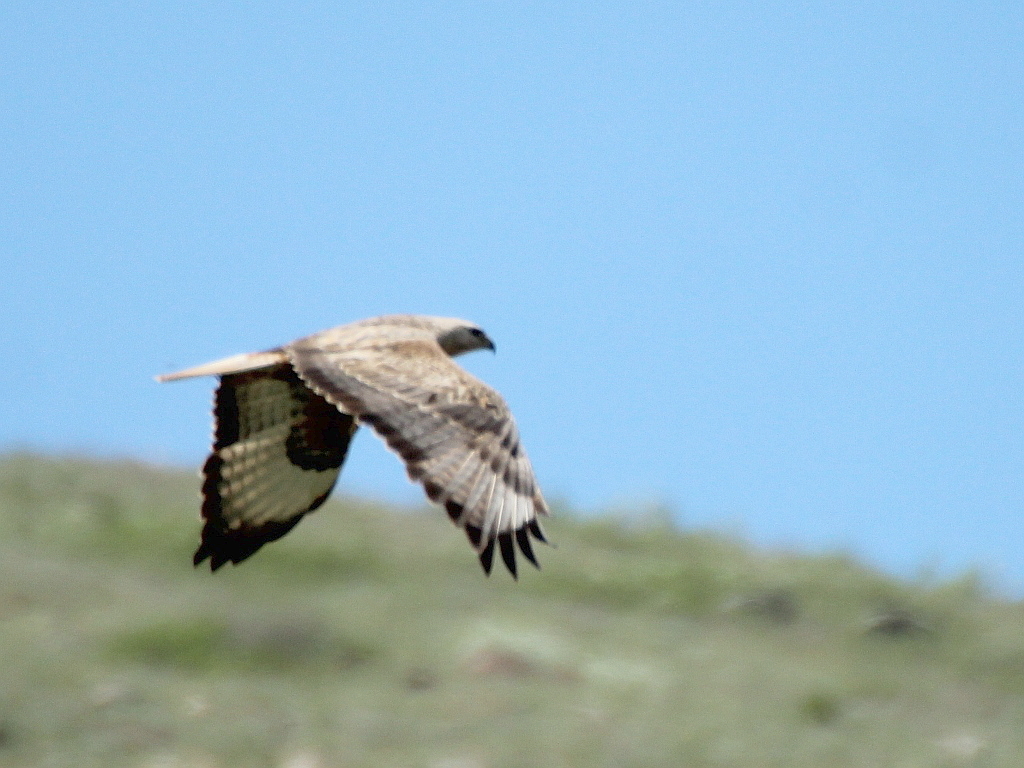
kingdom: Animalia
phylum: Chordata
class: Aves
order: Accipitriformes
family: Accipitridae
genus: Buteo
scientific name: Buteo rufinus
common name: Long-legged buzzard
